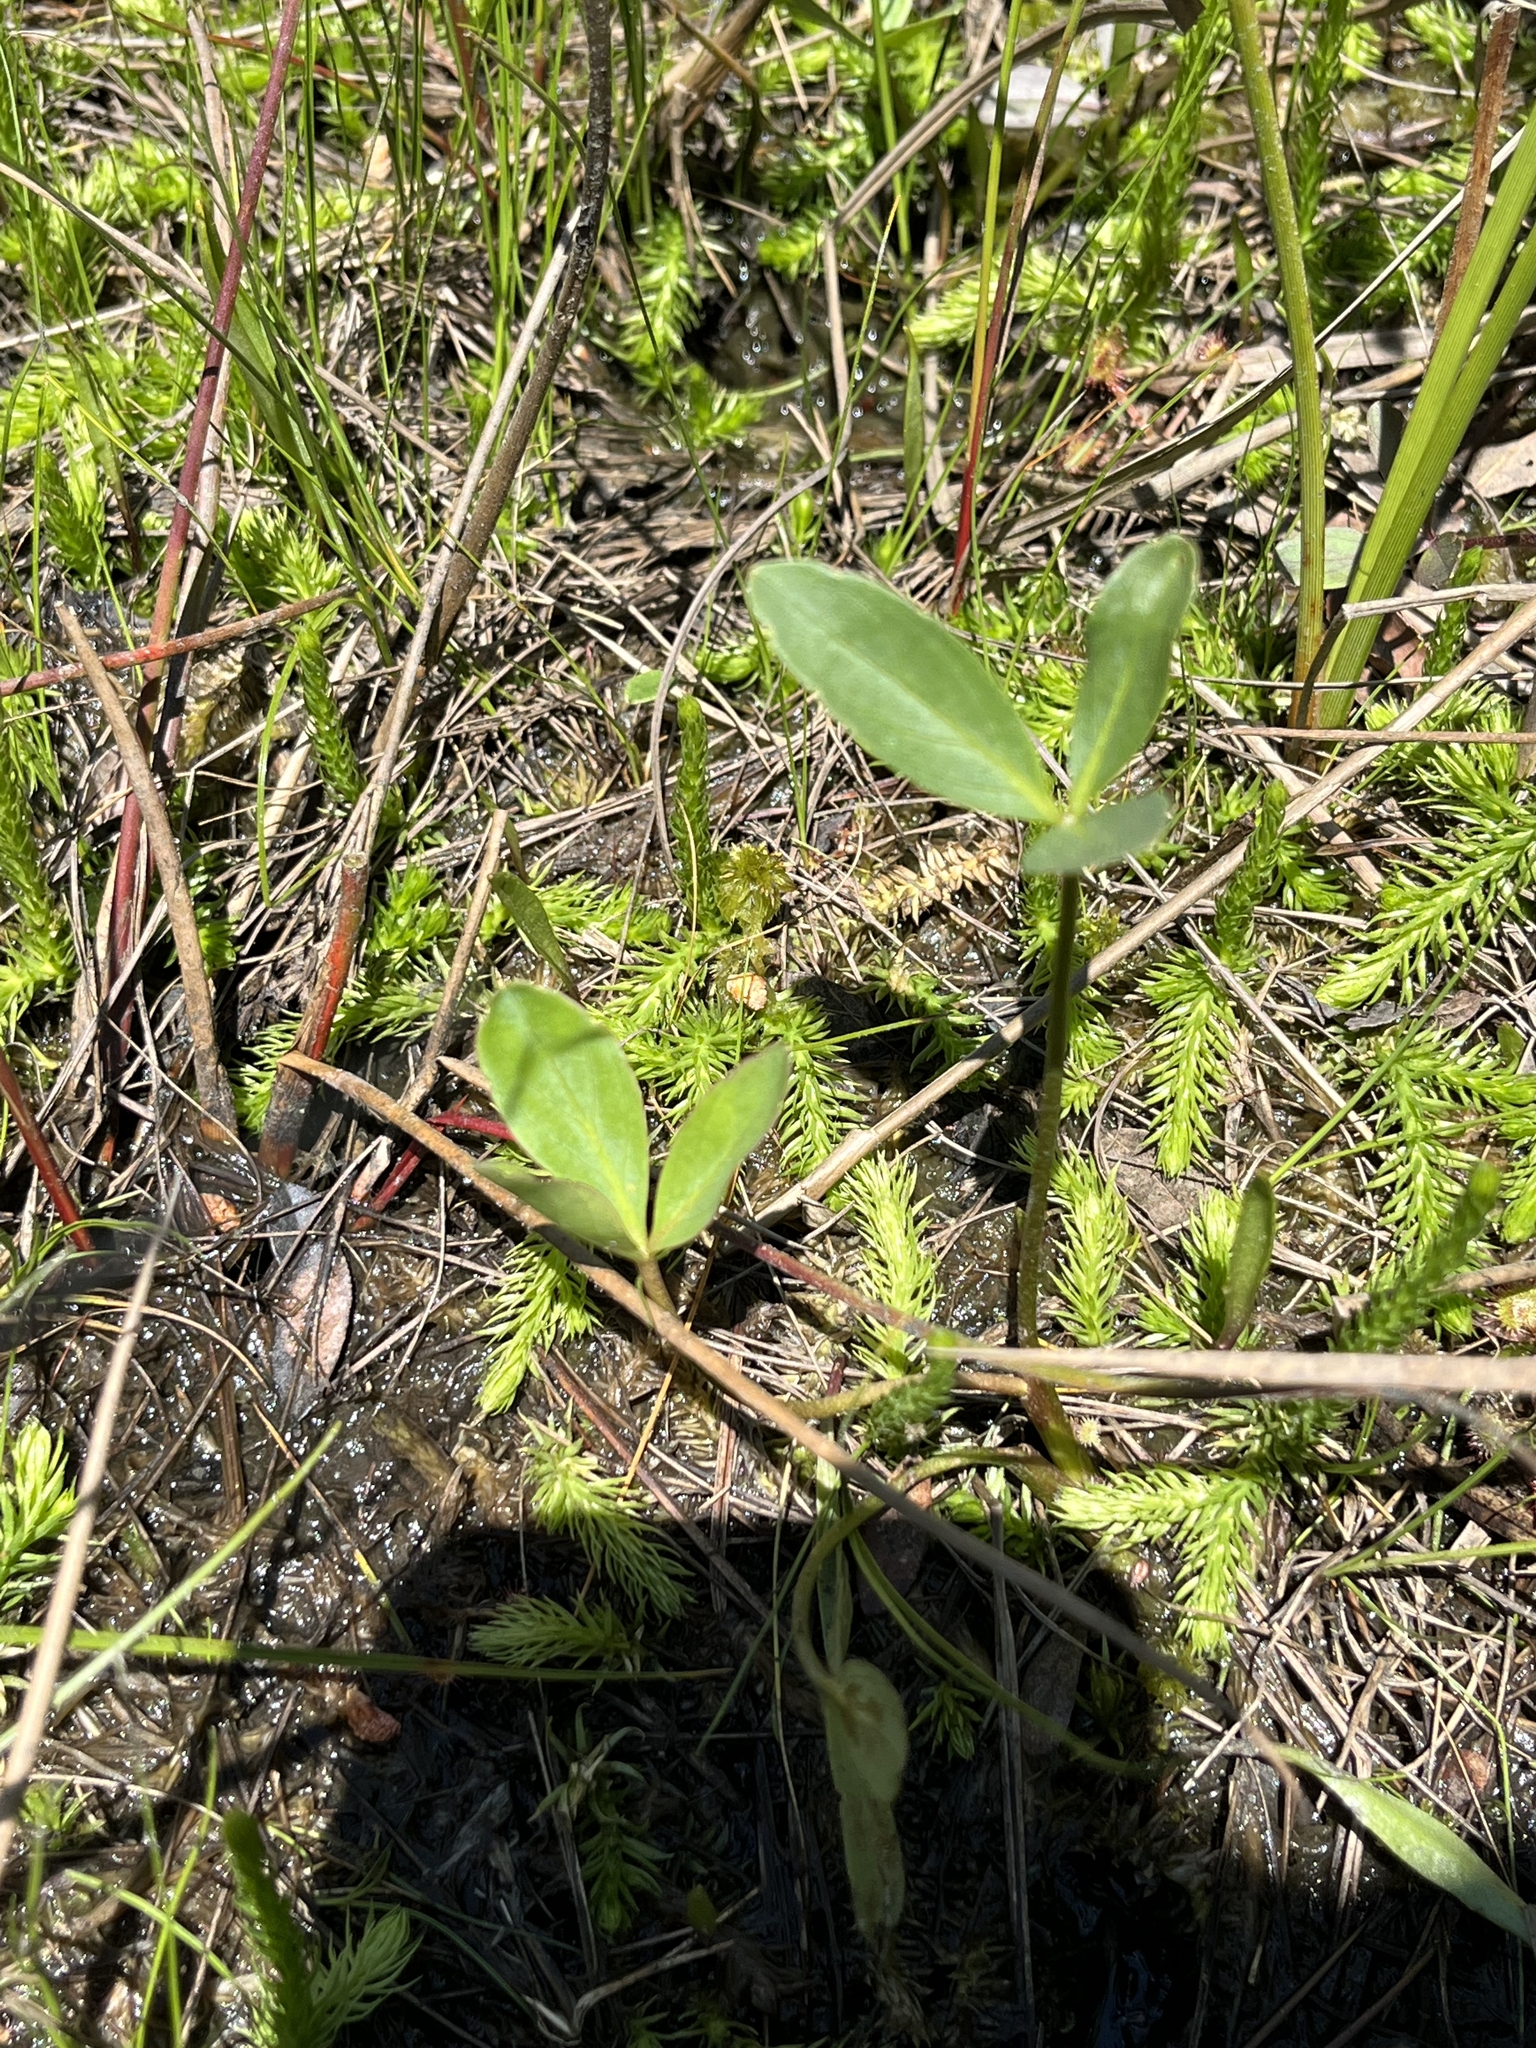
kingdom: Plantae
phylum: Tracheophyta
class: Magnoliopsida
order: Asterales
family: Menyanthaceae
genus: Menyanthes
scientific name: Menyanthes trifoliata
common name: Bogbean
